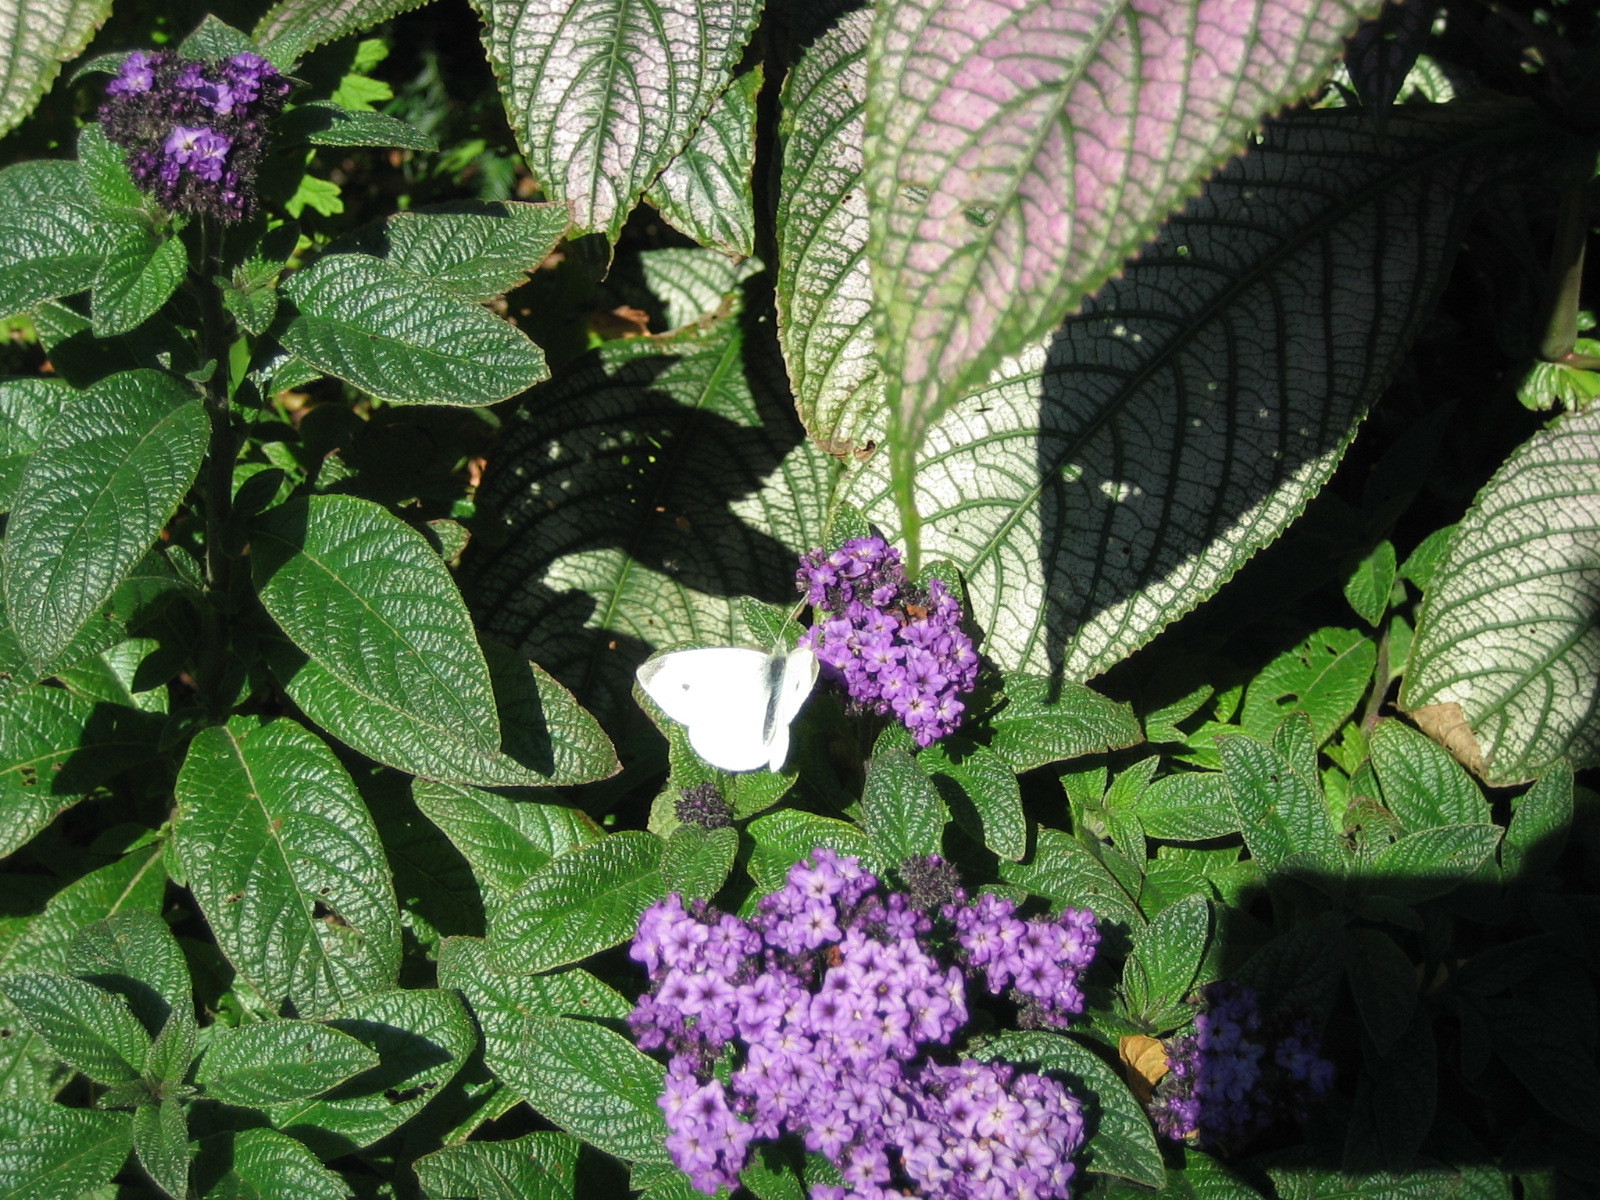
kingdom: Animalia
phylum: Arthropoda
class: Insecta
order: Lepidoptera
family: Pieridae
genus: Pieris
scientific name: Pieris rapae
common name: Small white
